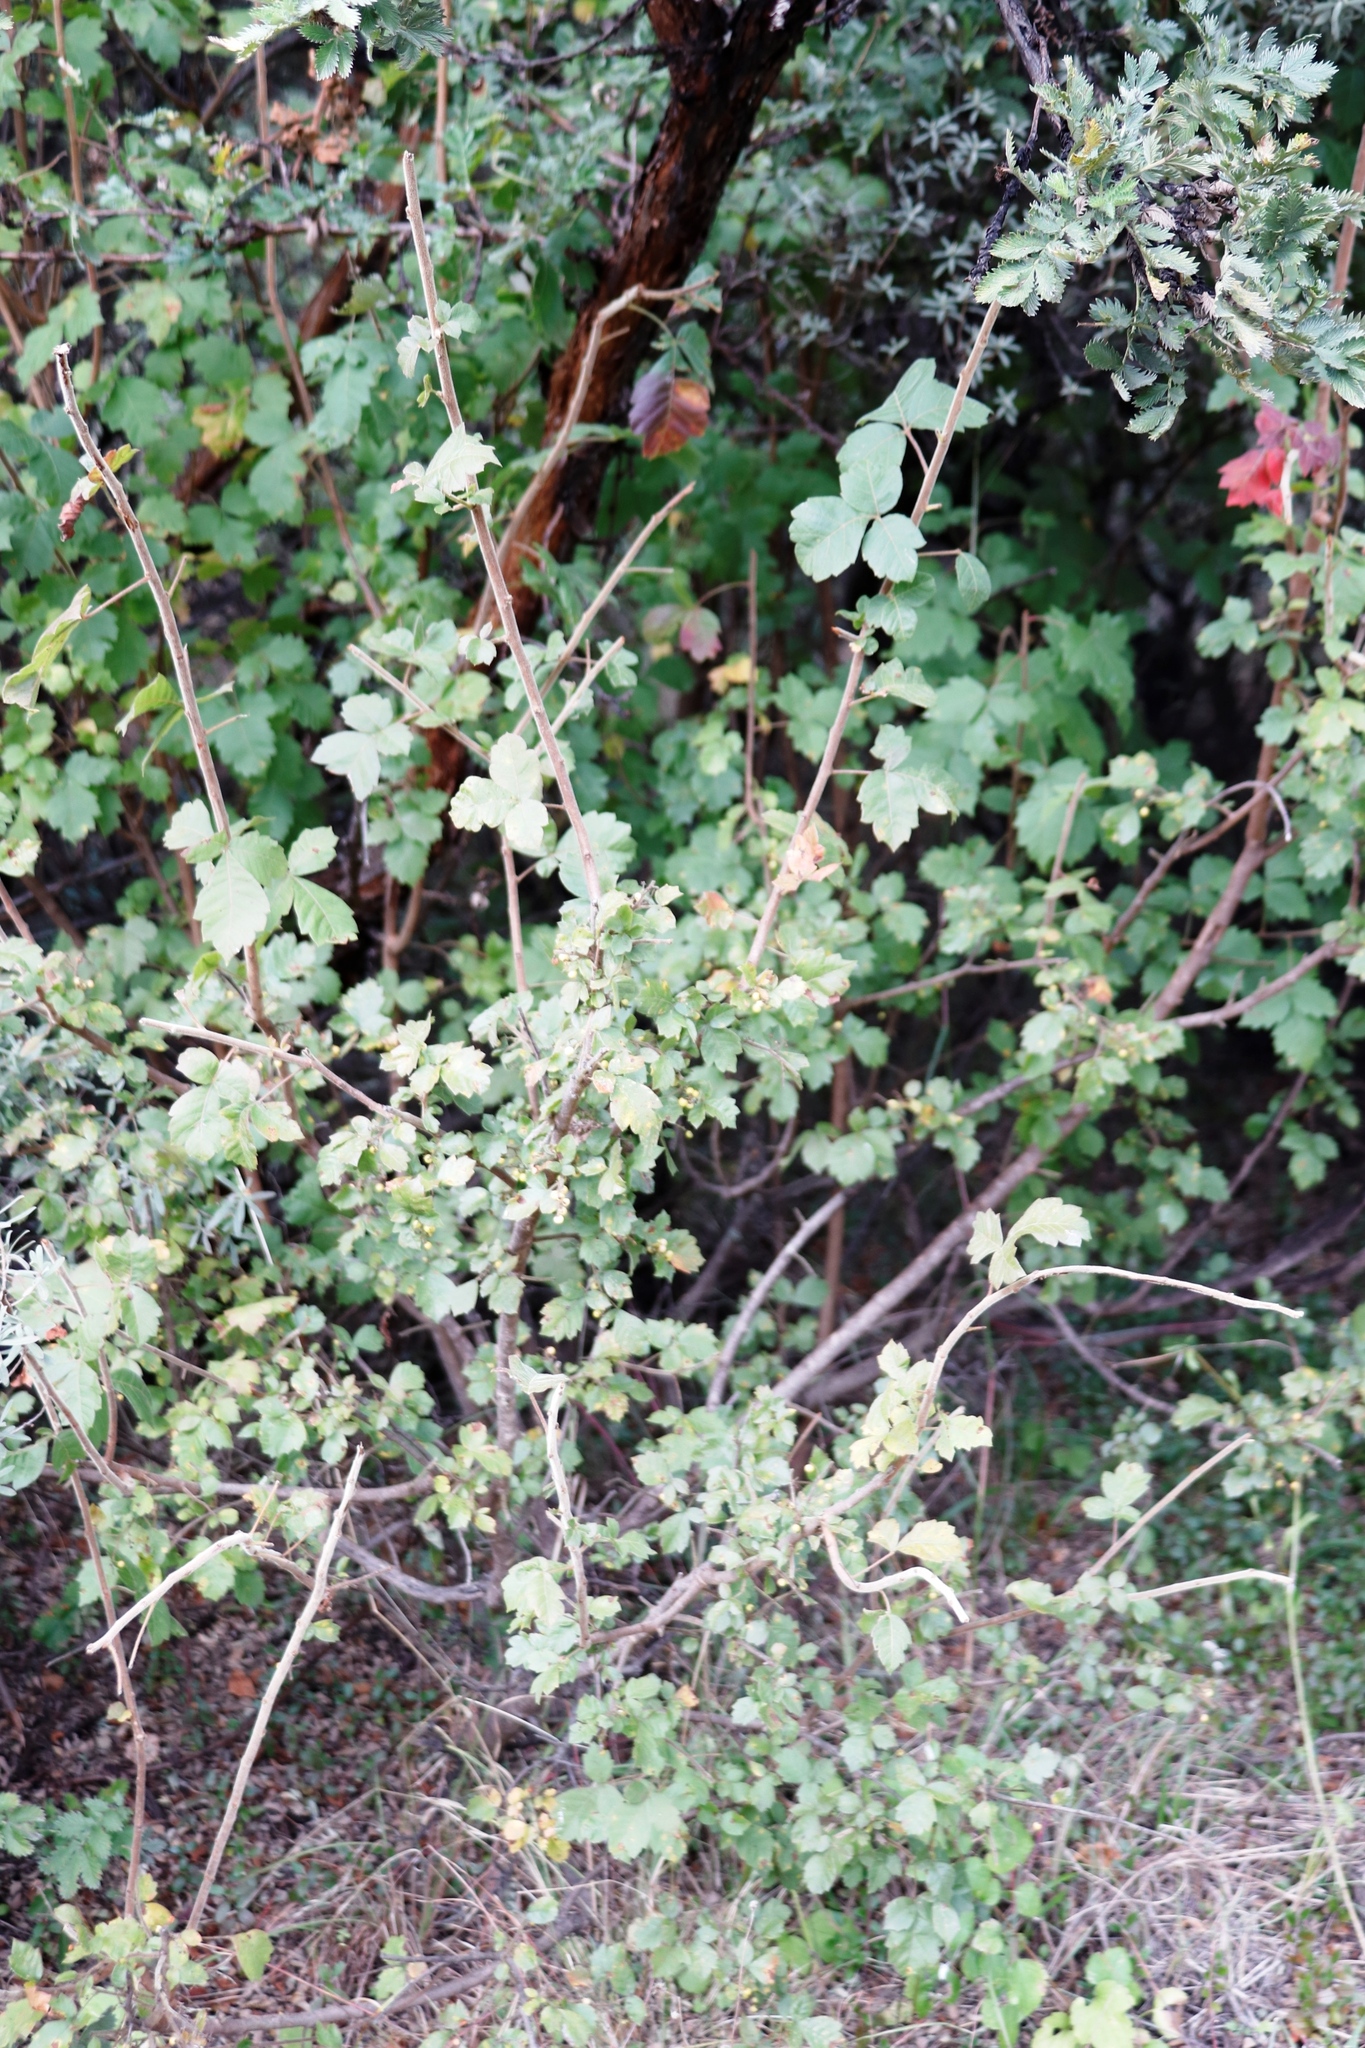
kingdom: Plantae
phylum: Tracheophyta
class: Magnoliopsida
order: Sapindales
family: Anacardiaceae
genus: Searsia
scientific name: Searsia dentata
